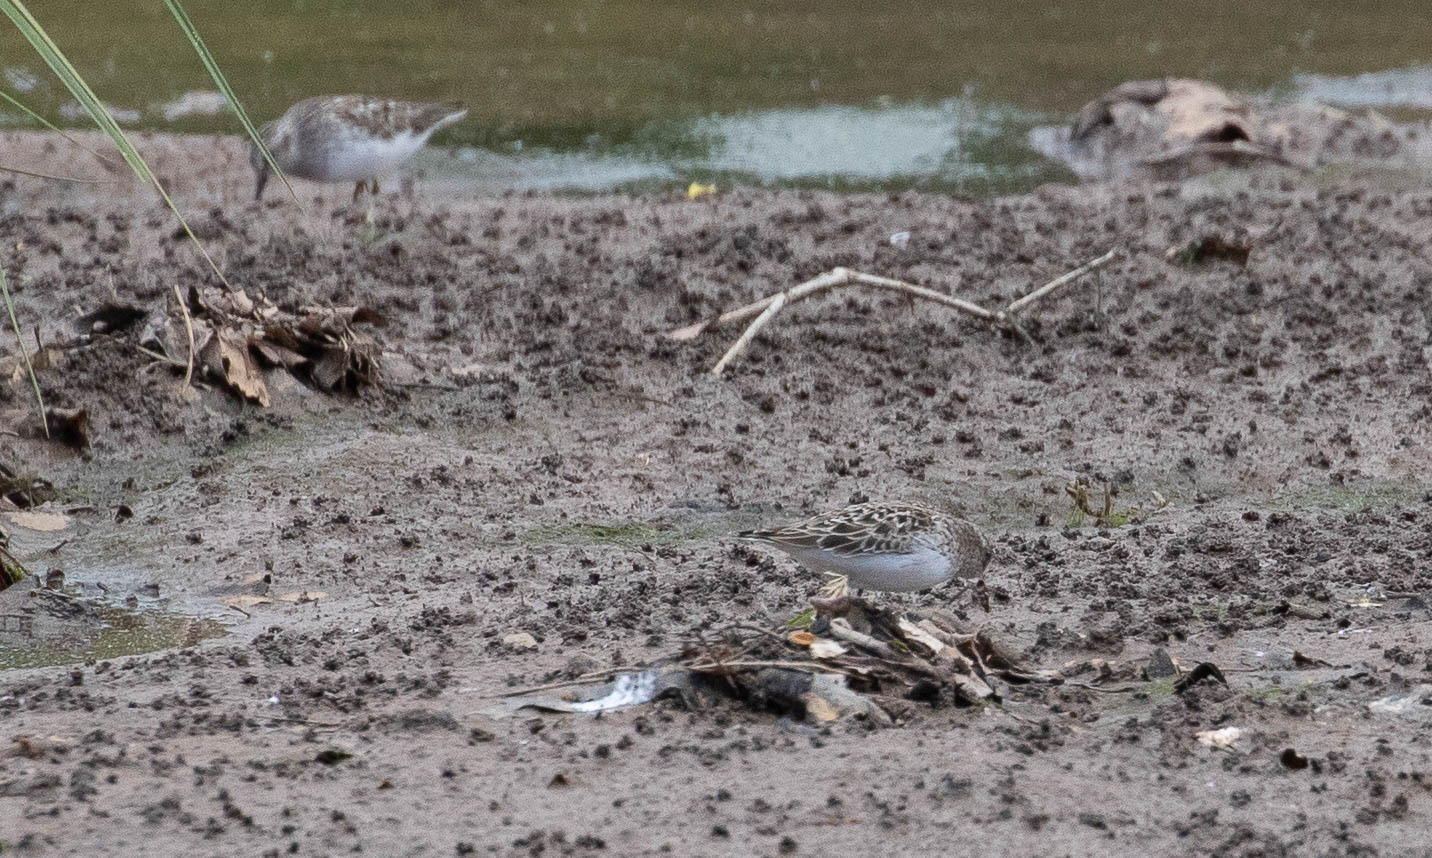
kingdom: Animalia
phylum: Chordata
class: Aves
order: Charadriiformes
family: Scolopacidae
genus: Calidris
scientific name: Calidris minutilla
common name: Least sandpiper
